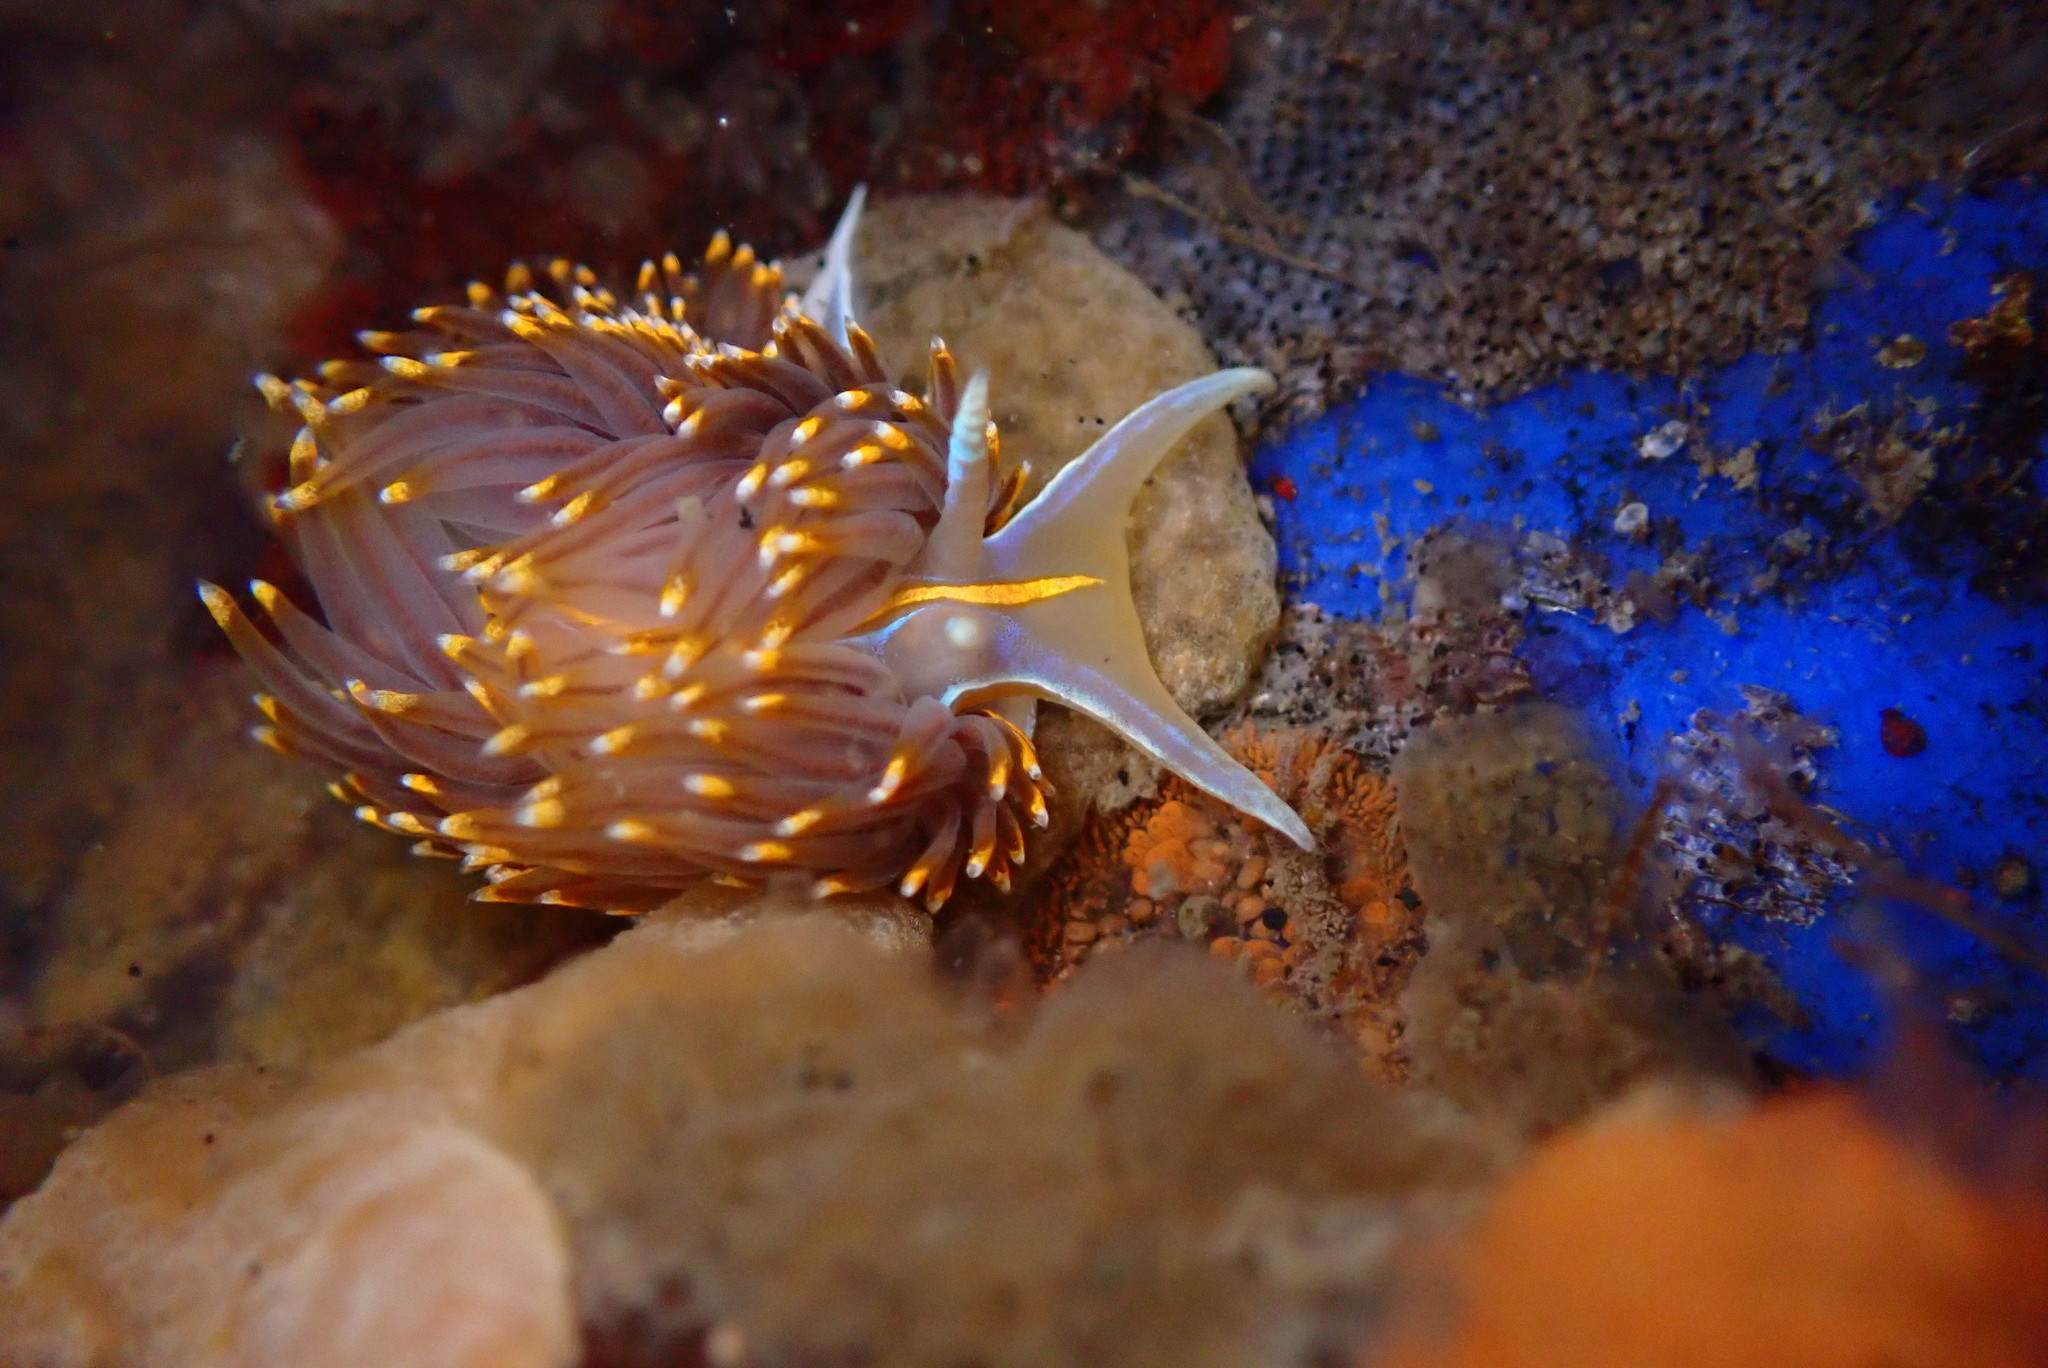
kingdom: Animalia
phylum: Mollusca
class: Gastropoda
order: Nudibranchia
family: Myrrhinidae
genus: Hermissenda
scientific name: Hermissenda opalescens
